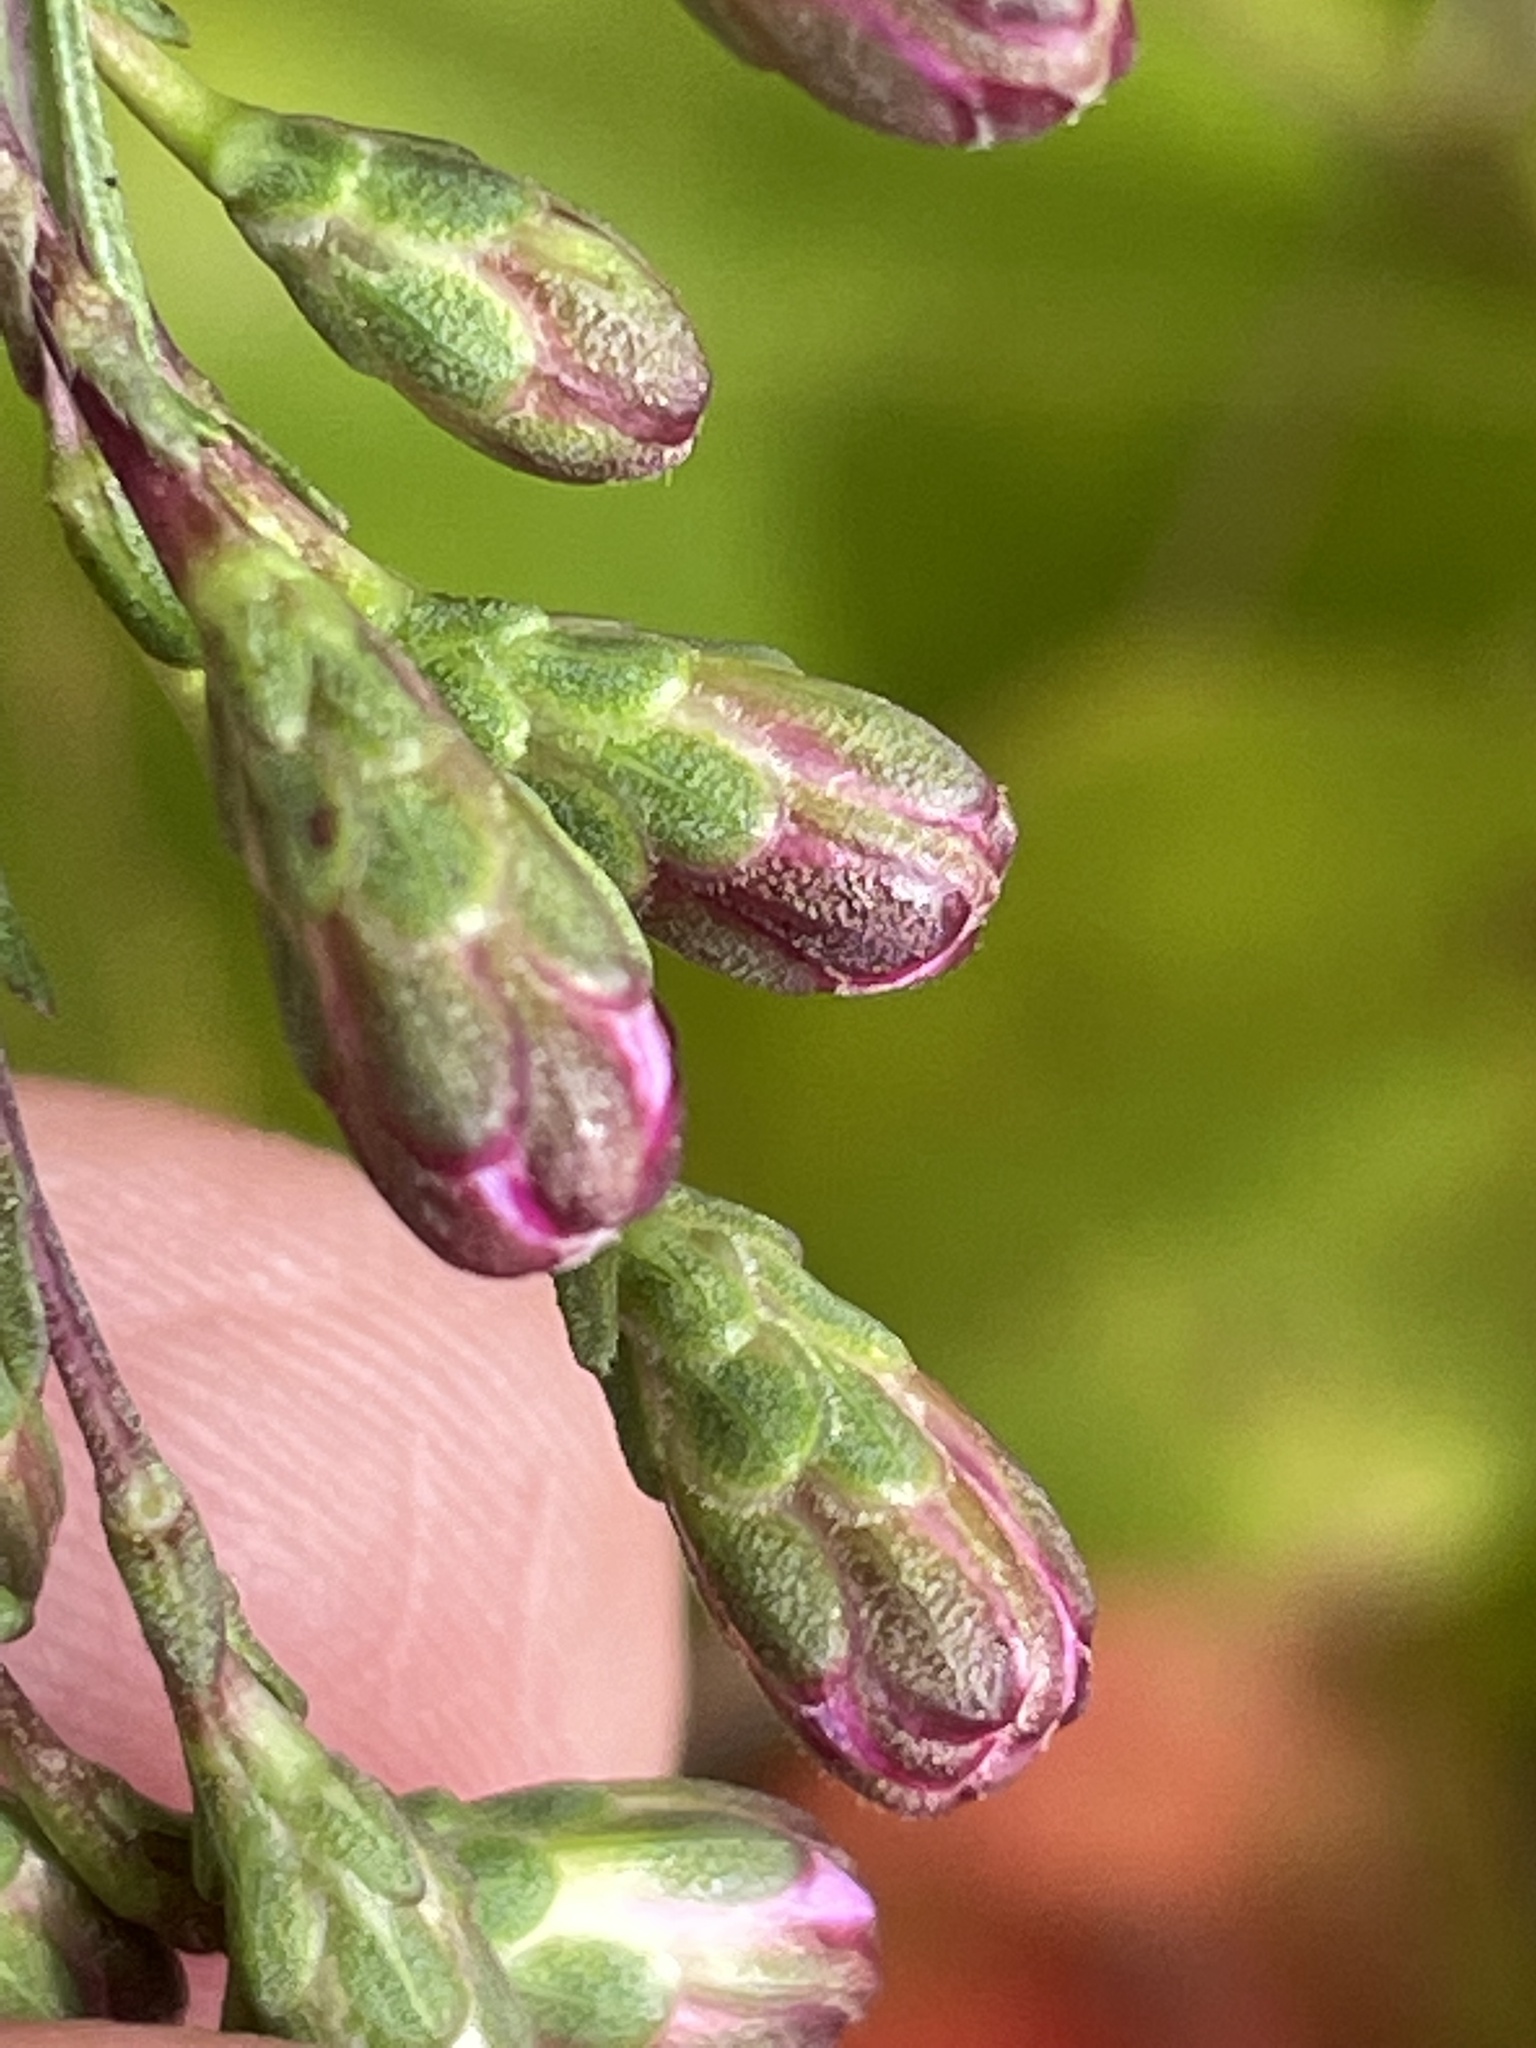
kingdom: Plantae
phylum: Tracheophyta
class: Magnoliopsida
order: Asterales
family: Asteraceae
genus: Liatris
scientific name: Liatris pilosa
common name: Grass-leaf gayfeather
